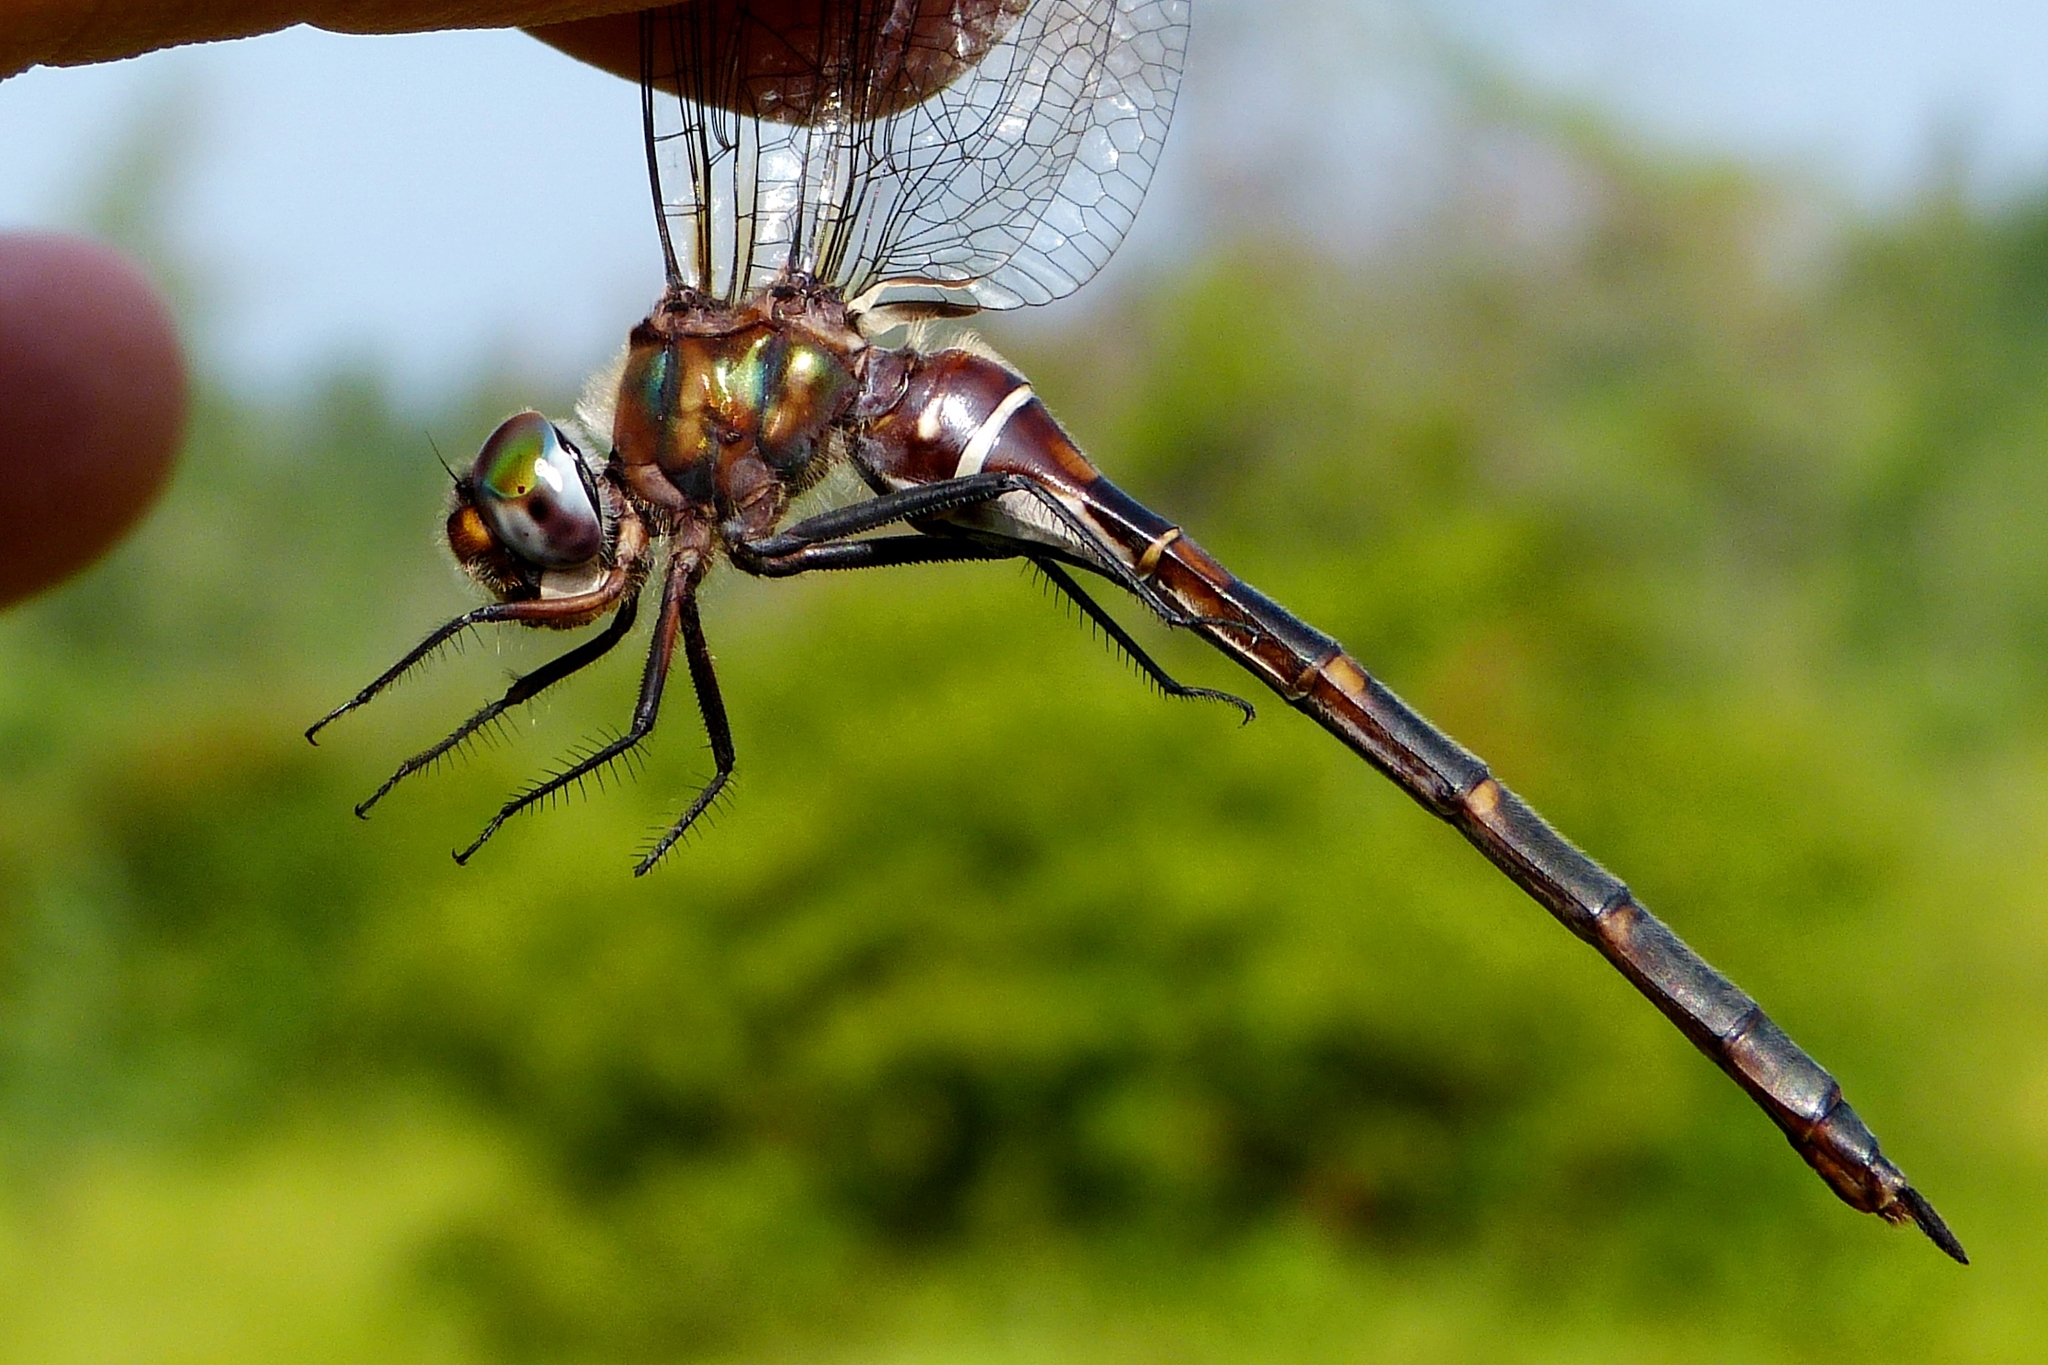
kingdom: Animalia
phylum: Arthropoda
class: Insecta
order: Odonata
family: Corduliidae
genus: Somatochlora
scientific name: Somatochlora incurvata
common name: Incurvate emerald
